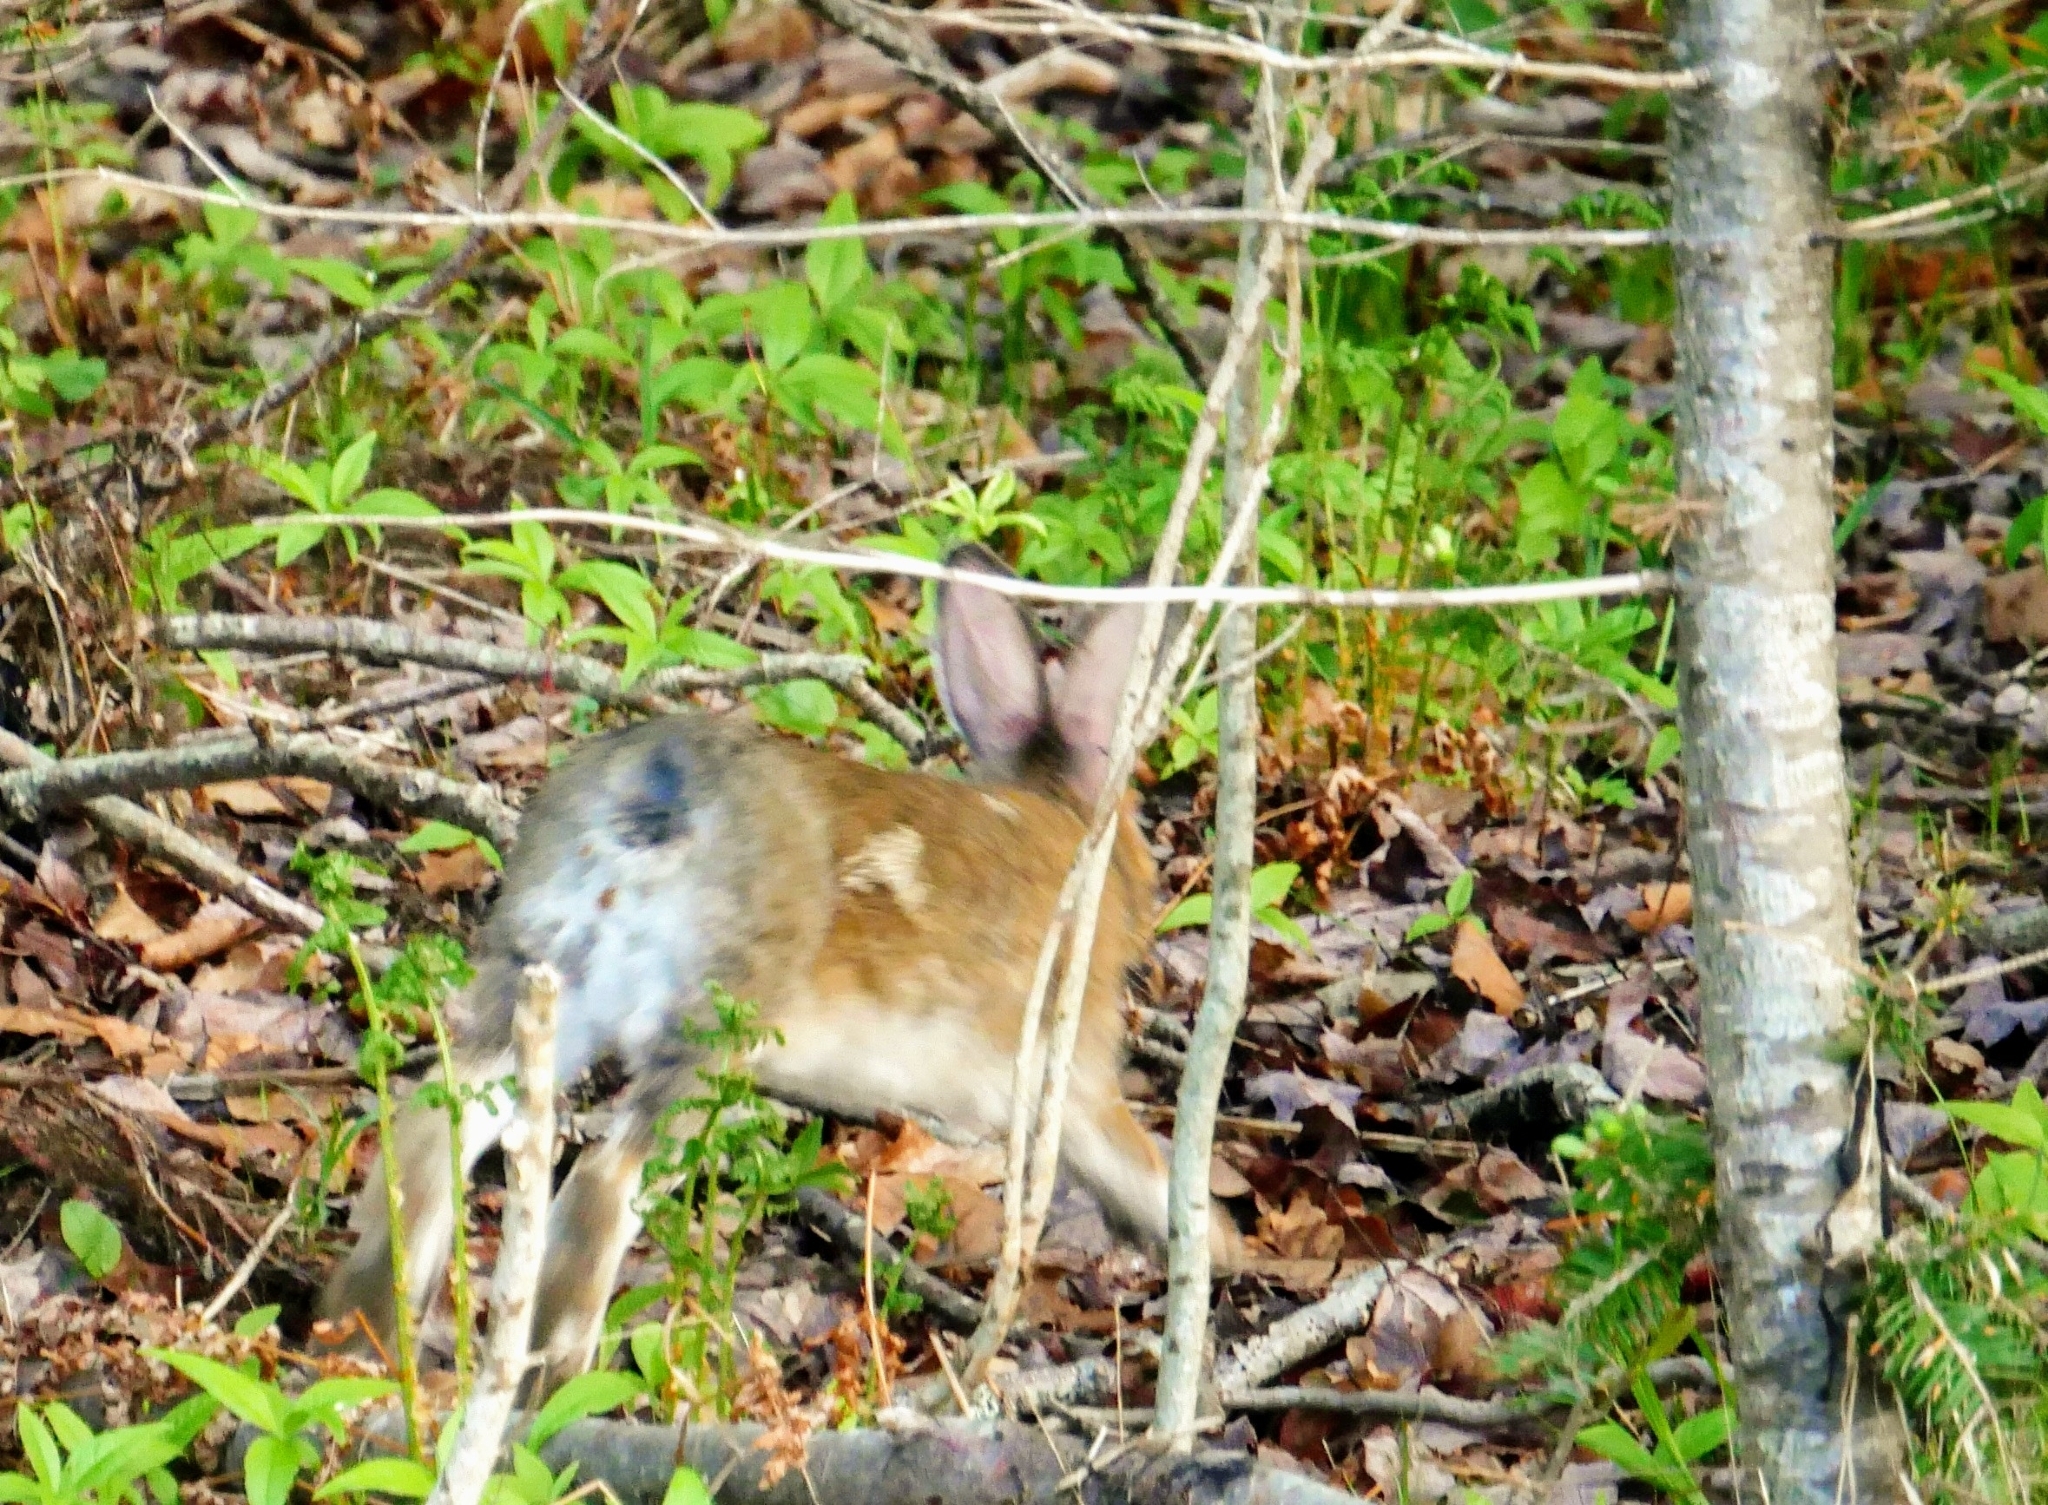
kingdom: Animalia
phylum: Chordata
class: Mammalia
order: Lagomorpha
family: Leporidae
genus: Lepus
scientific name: Lepus americanus
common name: Snowshoe hare
